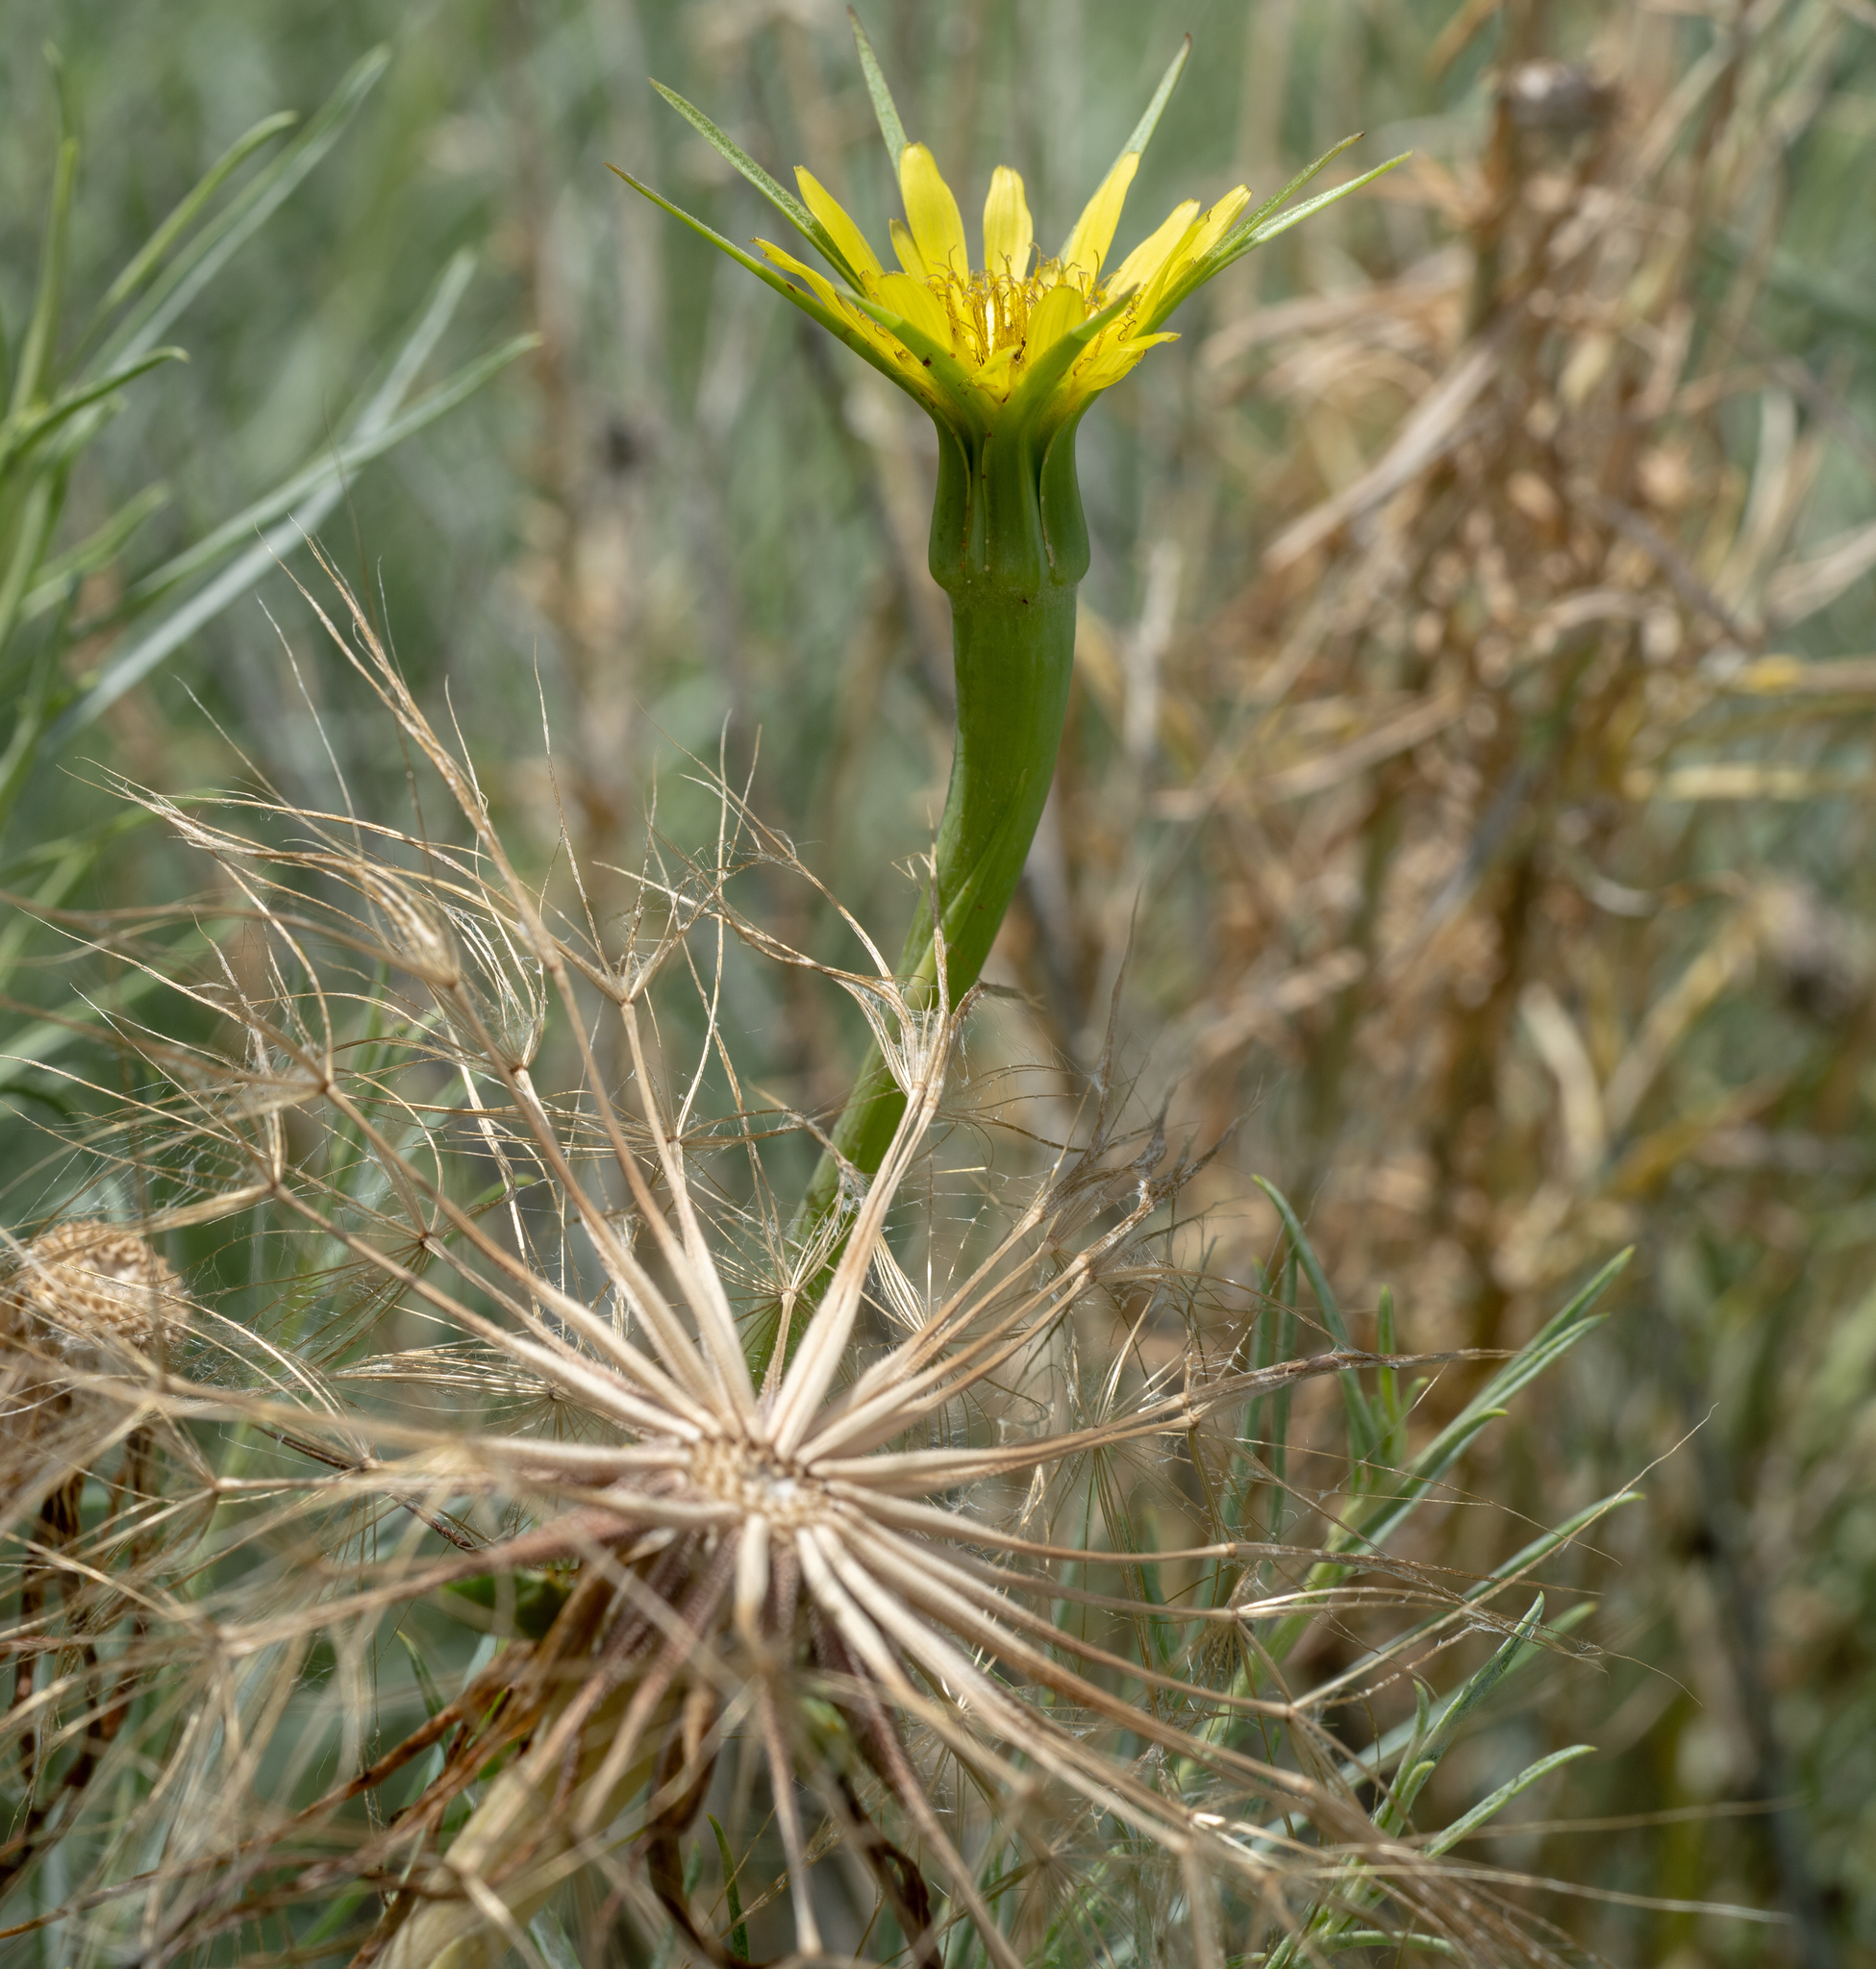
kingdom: Plantae
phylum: Tracheophyta
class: Magnoliopsida
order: Asterales
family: Asteraceae
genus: Tragopogon
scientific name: Tragopogon dubius
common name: Yellow salsify
